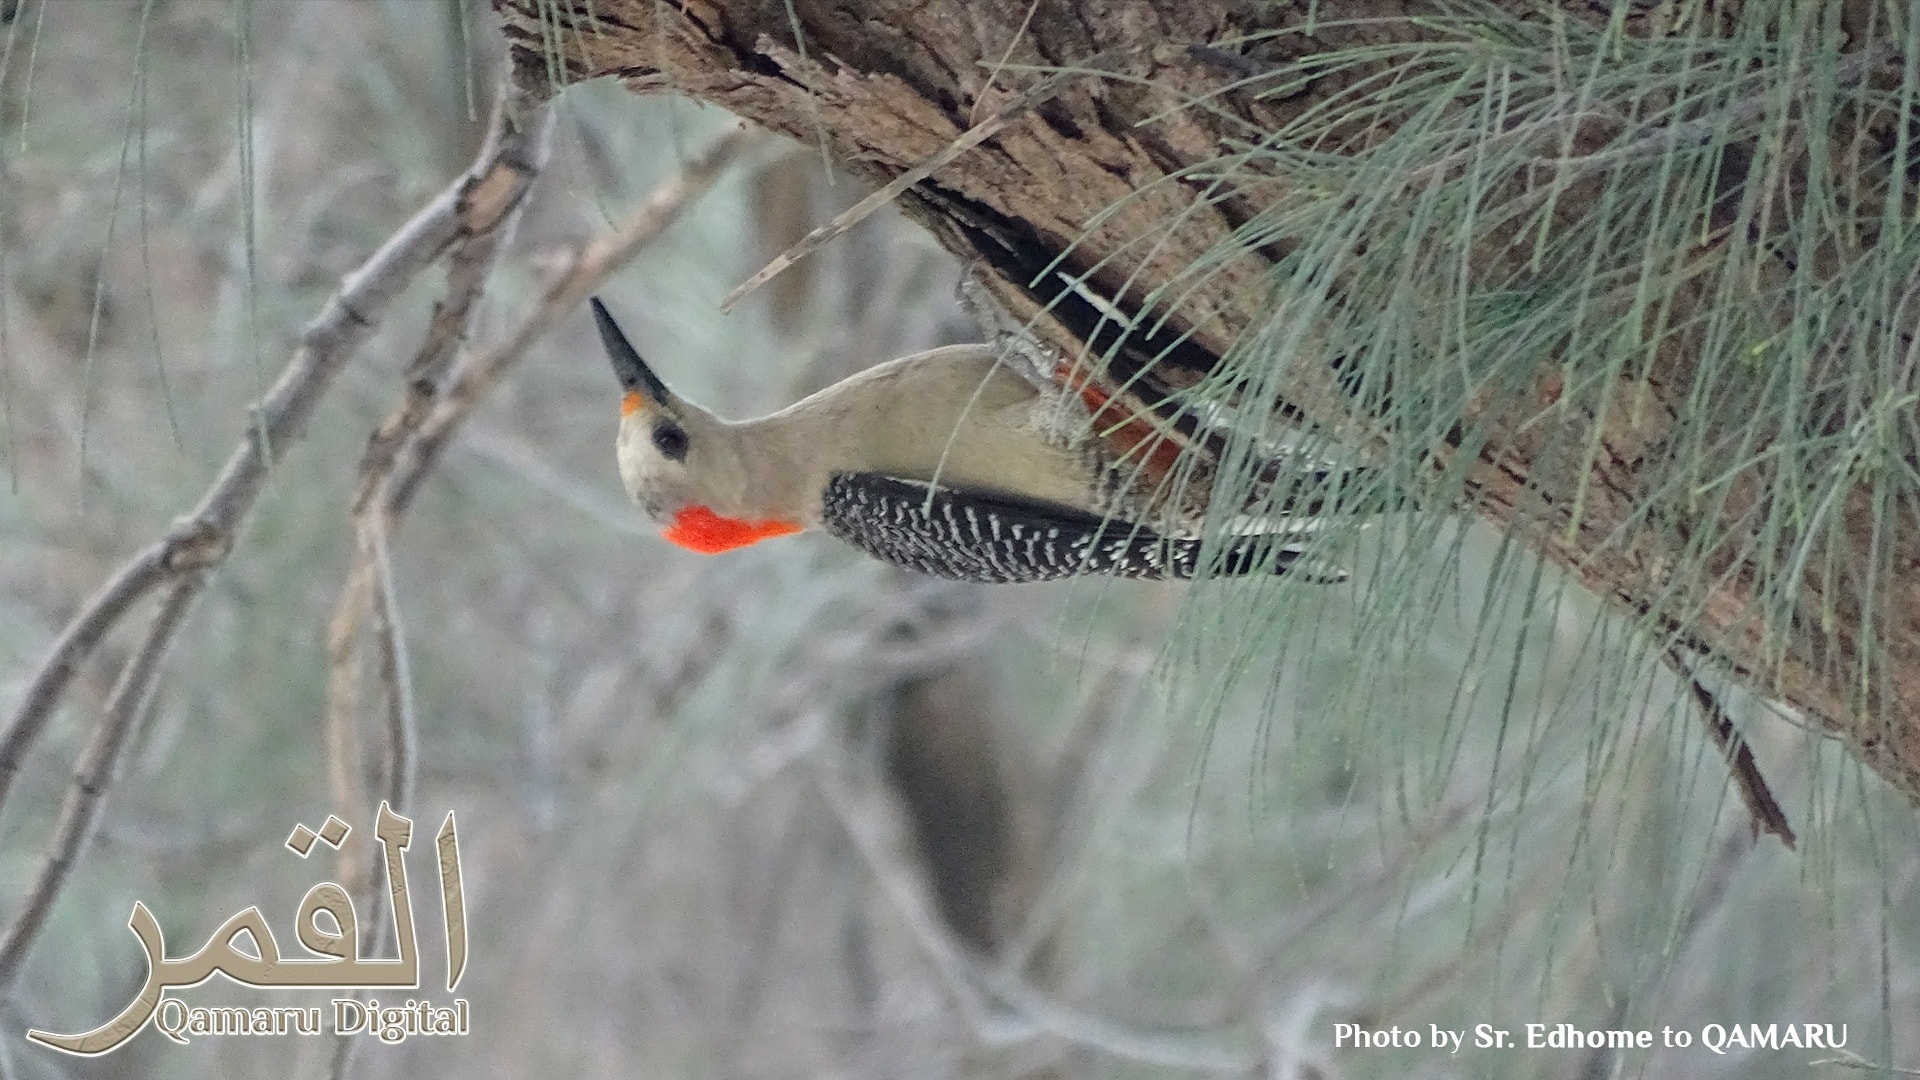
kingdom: Animalia
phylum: Chordata
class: Aves
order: Piciformes
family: Picidae
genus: Melanerpes
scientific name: Melanerpes aurifrons
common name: Golden-fronted woodpecker
